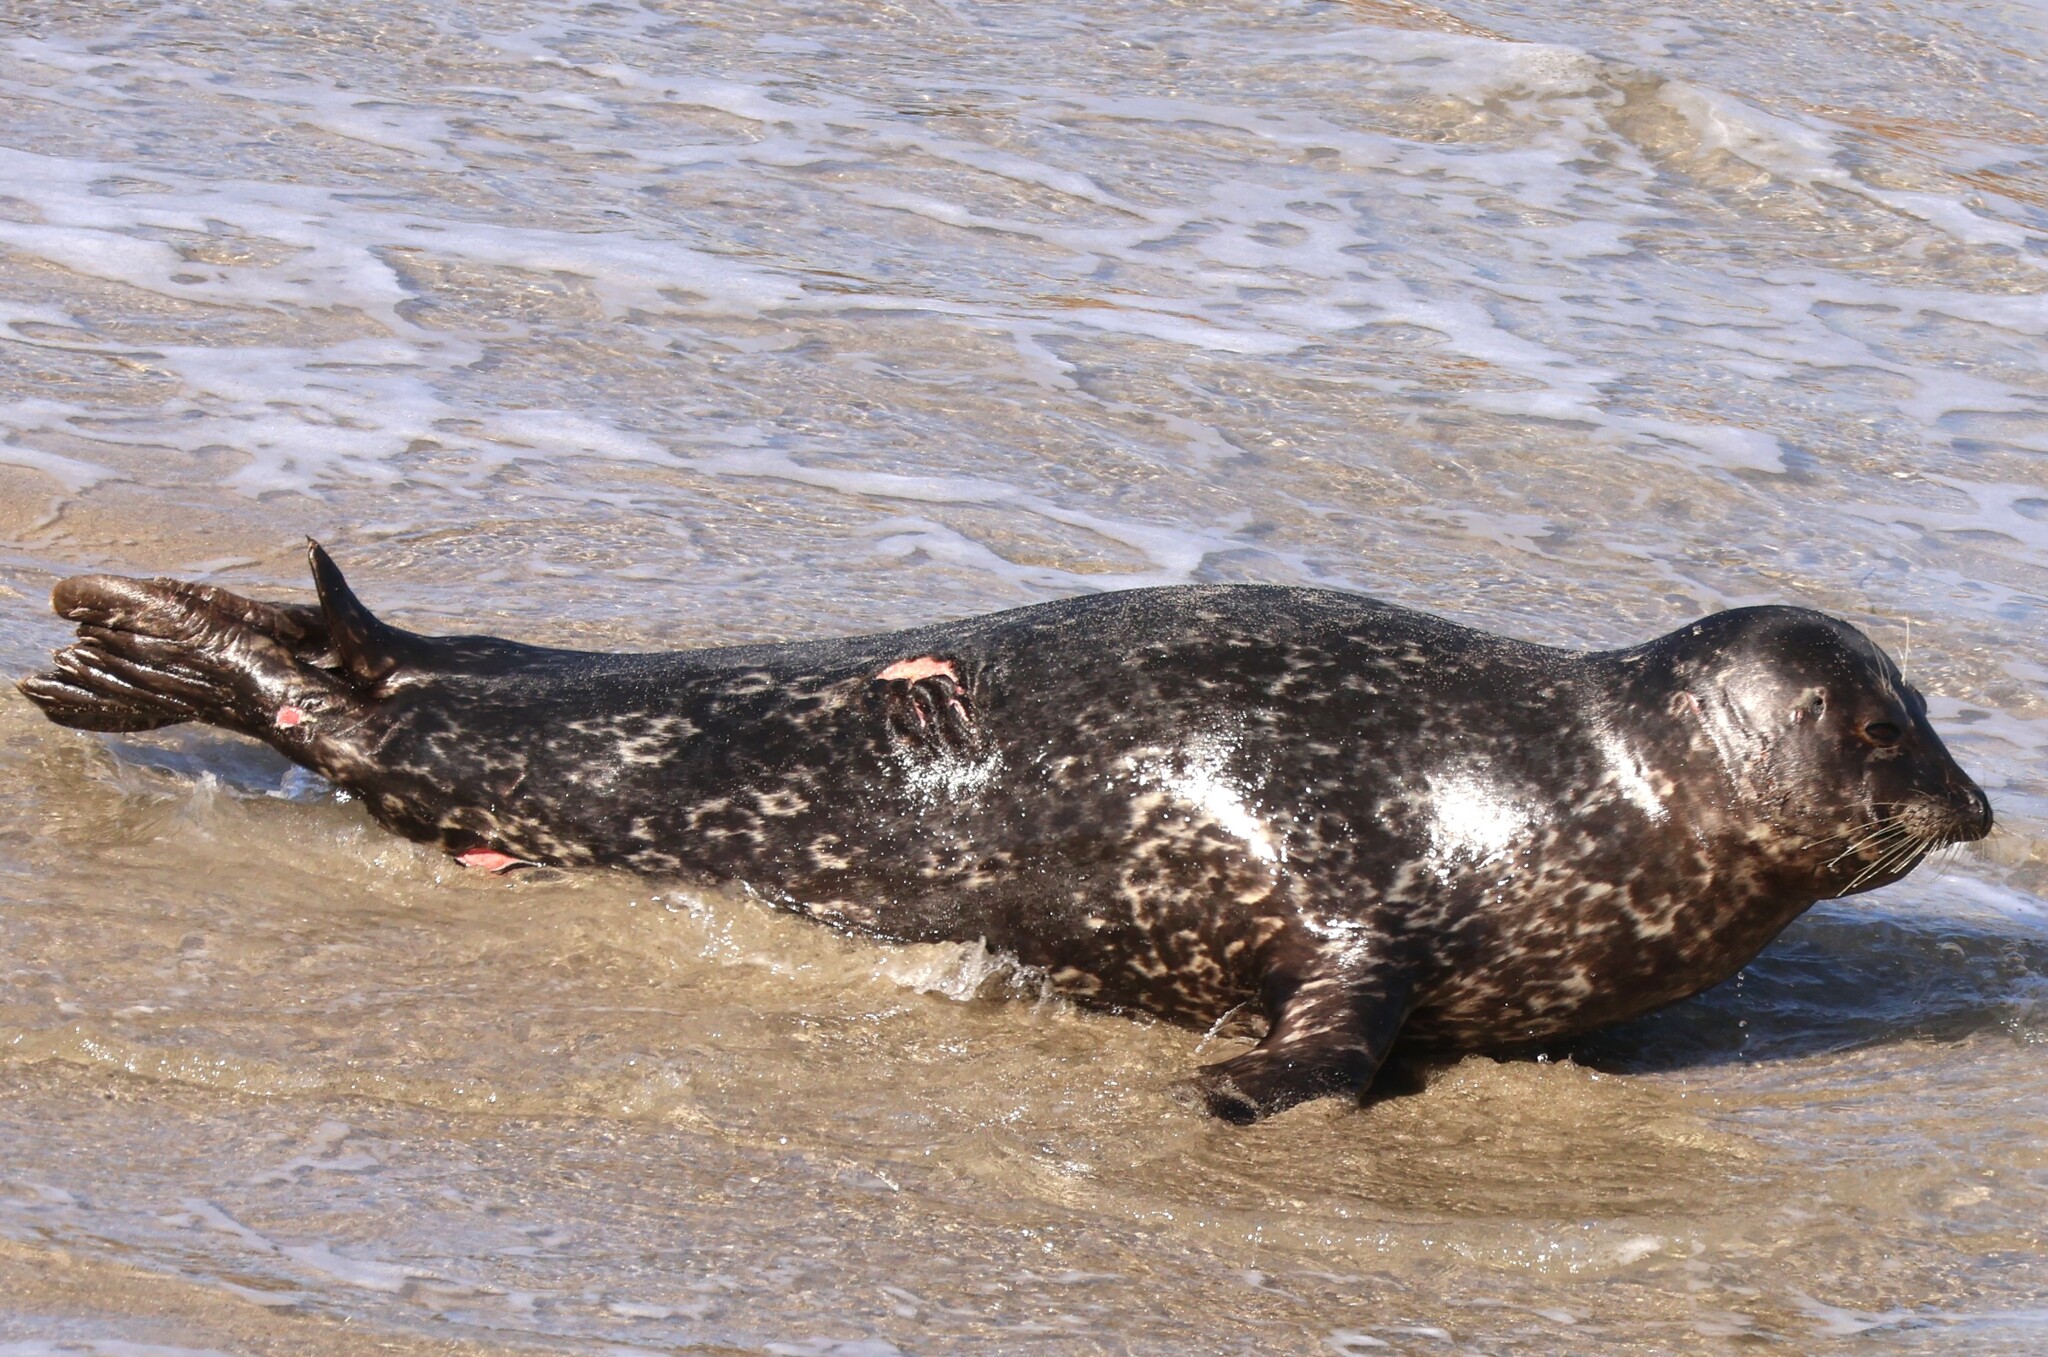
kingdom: Animalia
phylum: Chordata
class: Mammalia
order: Carnivora
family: Phocidae
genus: Phoca
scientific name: Phoca vitulina
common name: Harbor seal
